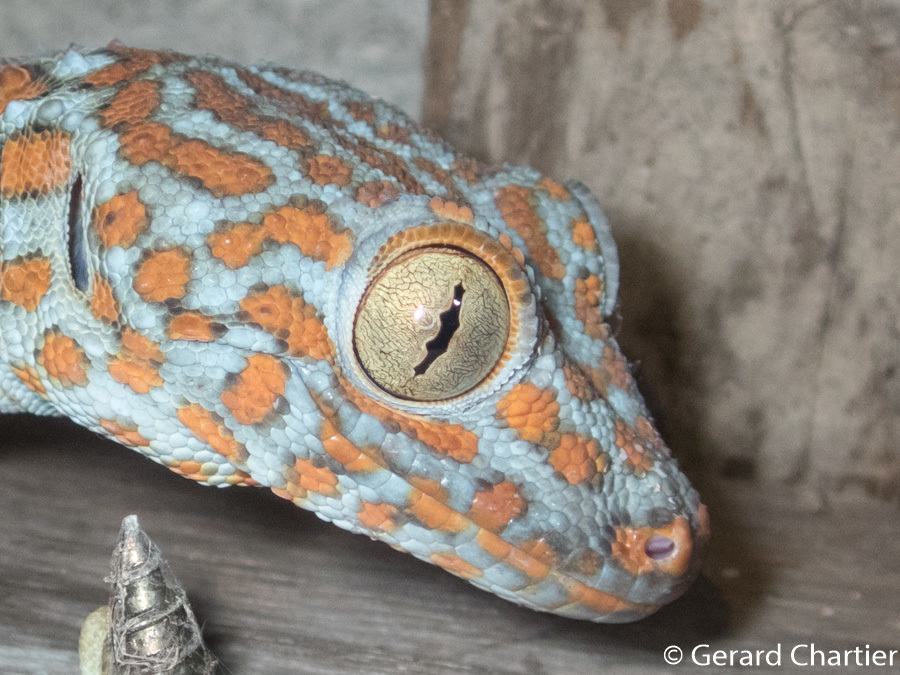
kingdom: Animalia
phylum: Chordata
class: Squamata
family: Gekkonidae
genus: Gekko
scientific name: Gekko gecko
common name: Tokay gecko
